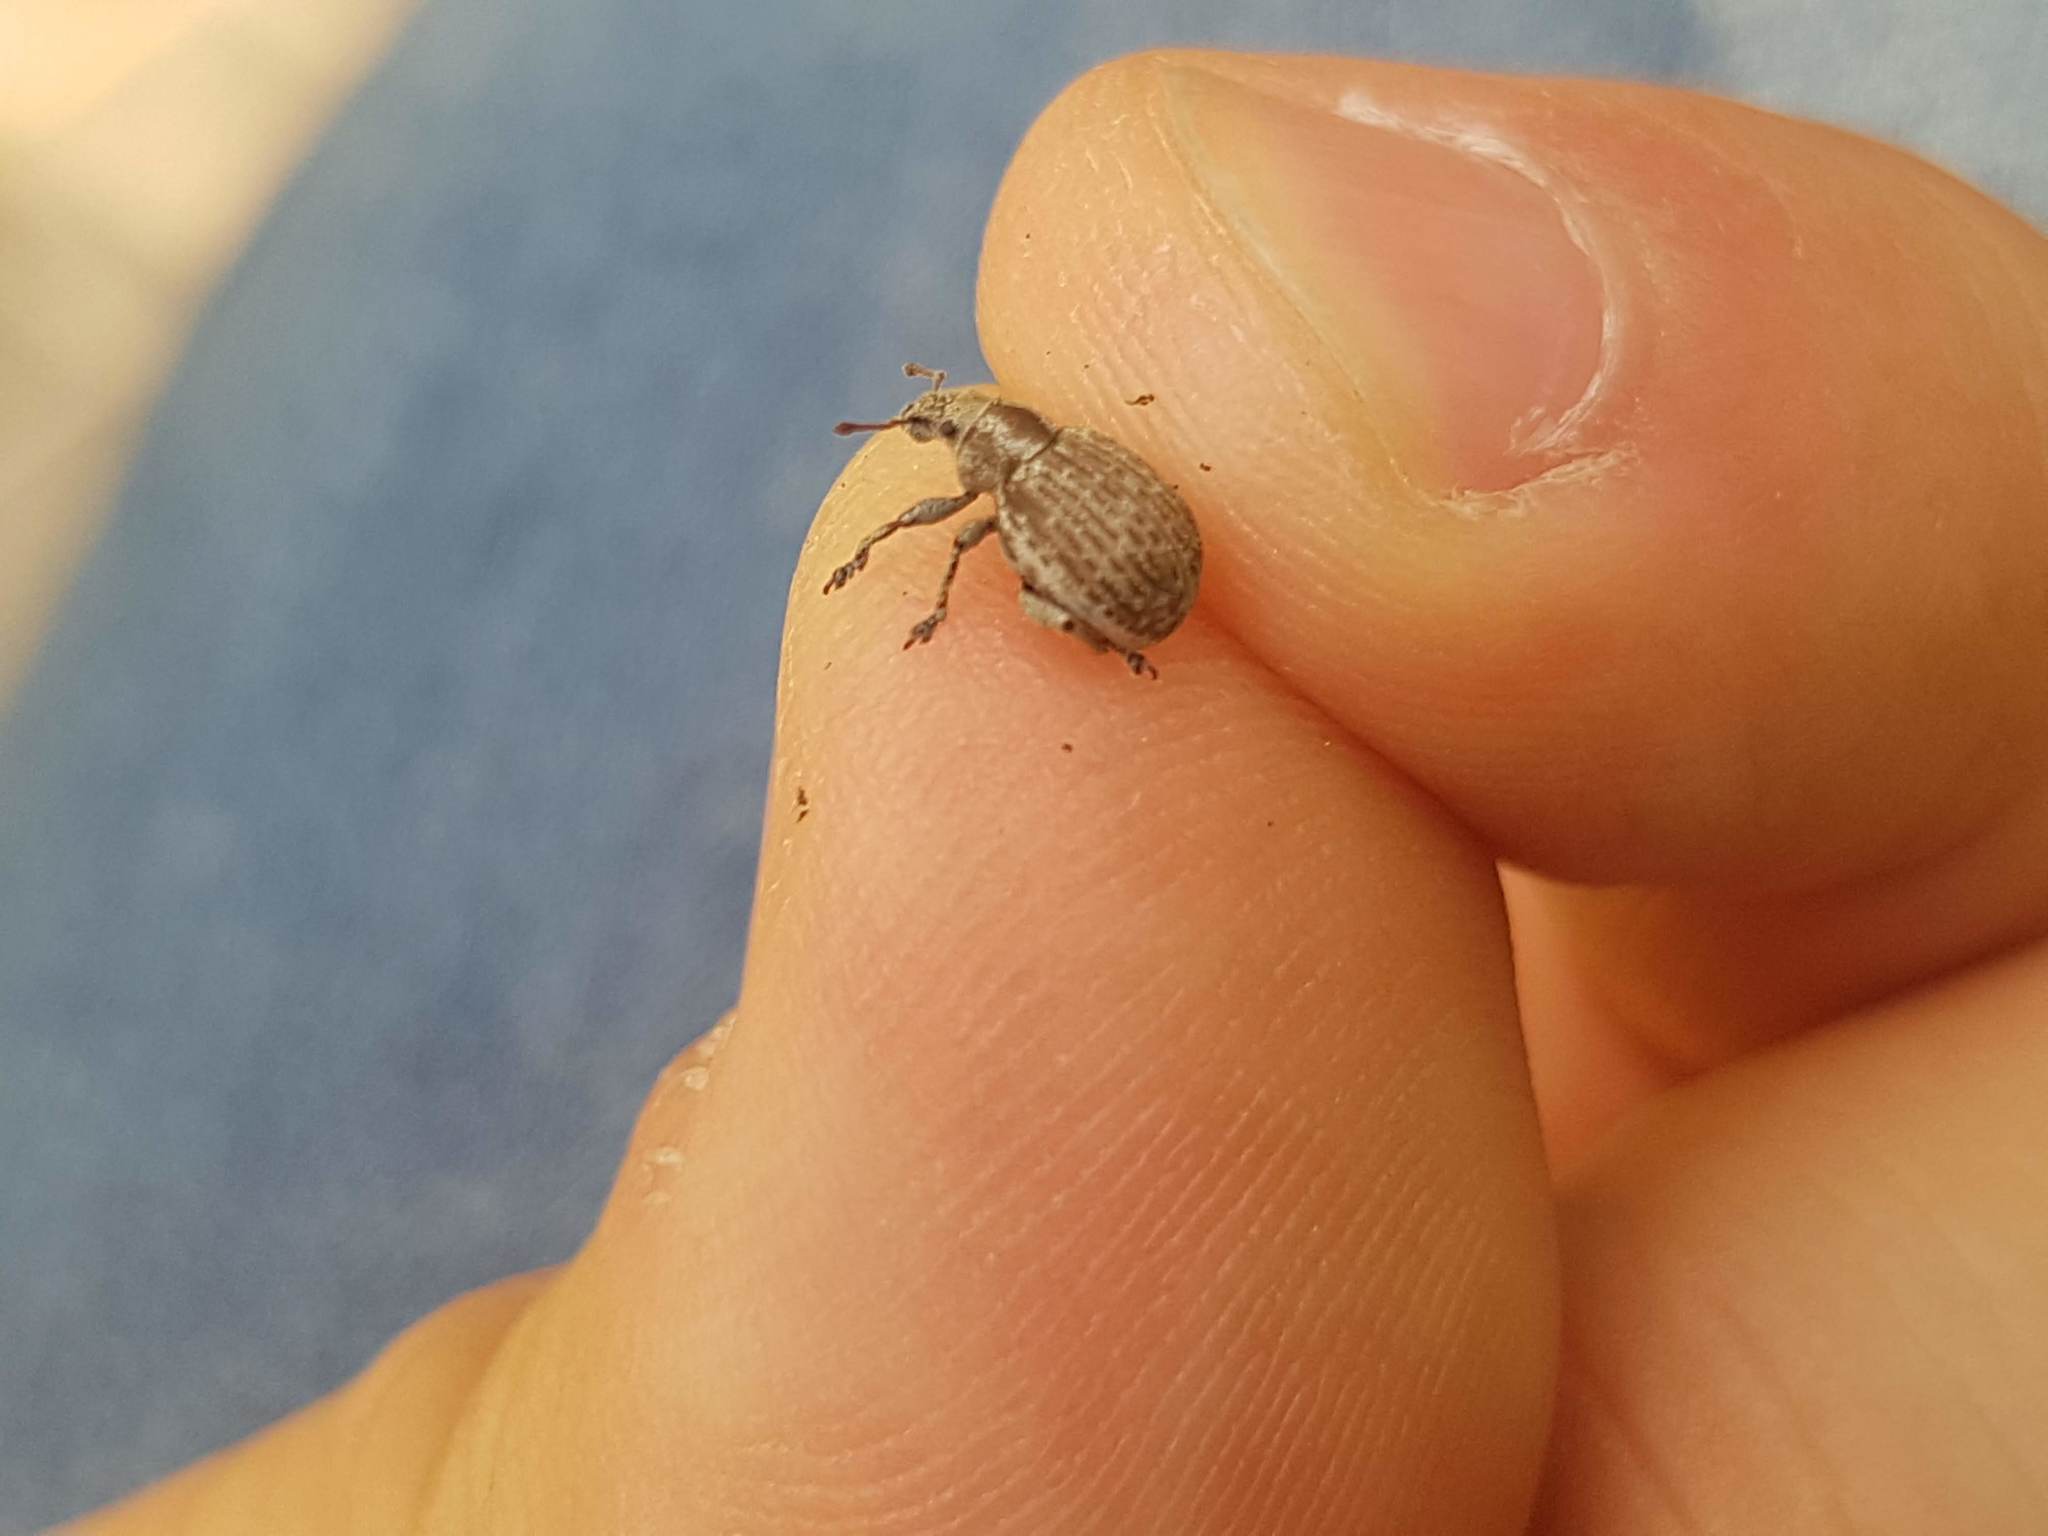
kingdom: Animalia
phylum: Arthropoda
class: Insecta
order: Coleoptera
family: Curculionidae
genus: Philopedon
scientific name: Philopedon plagiatum
